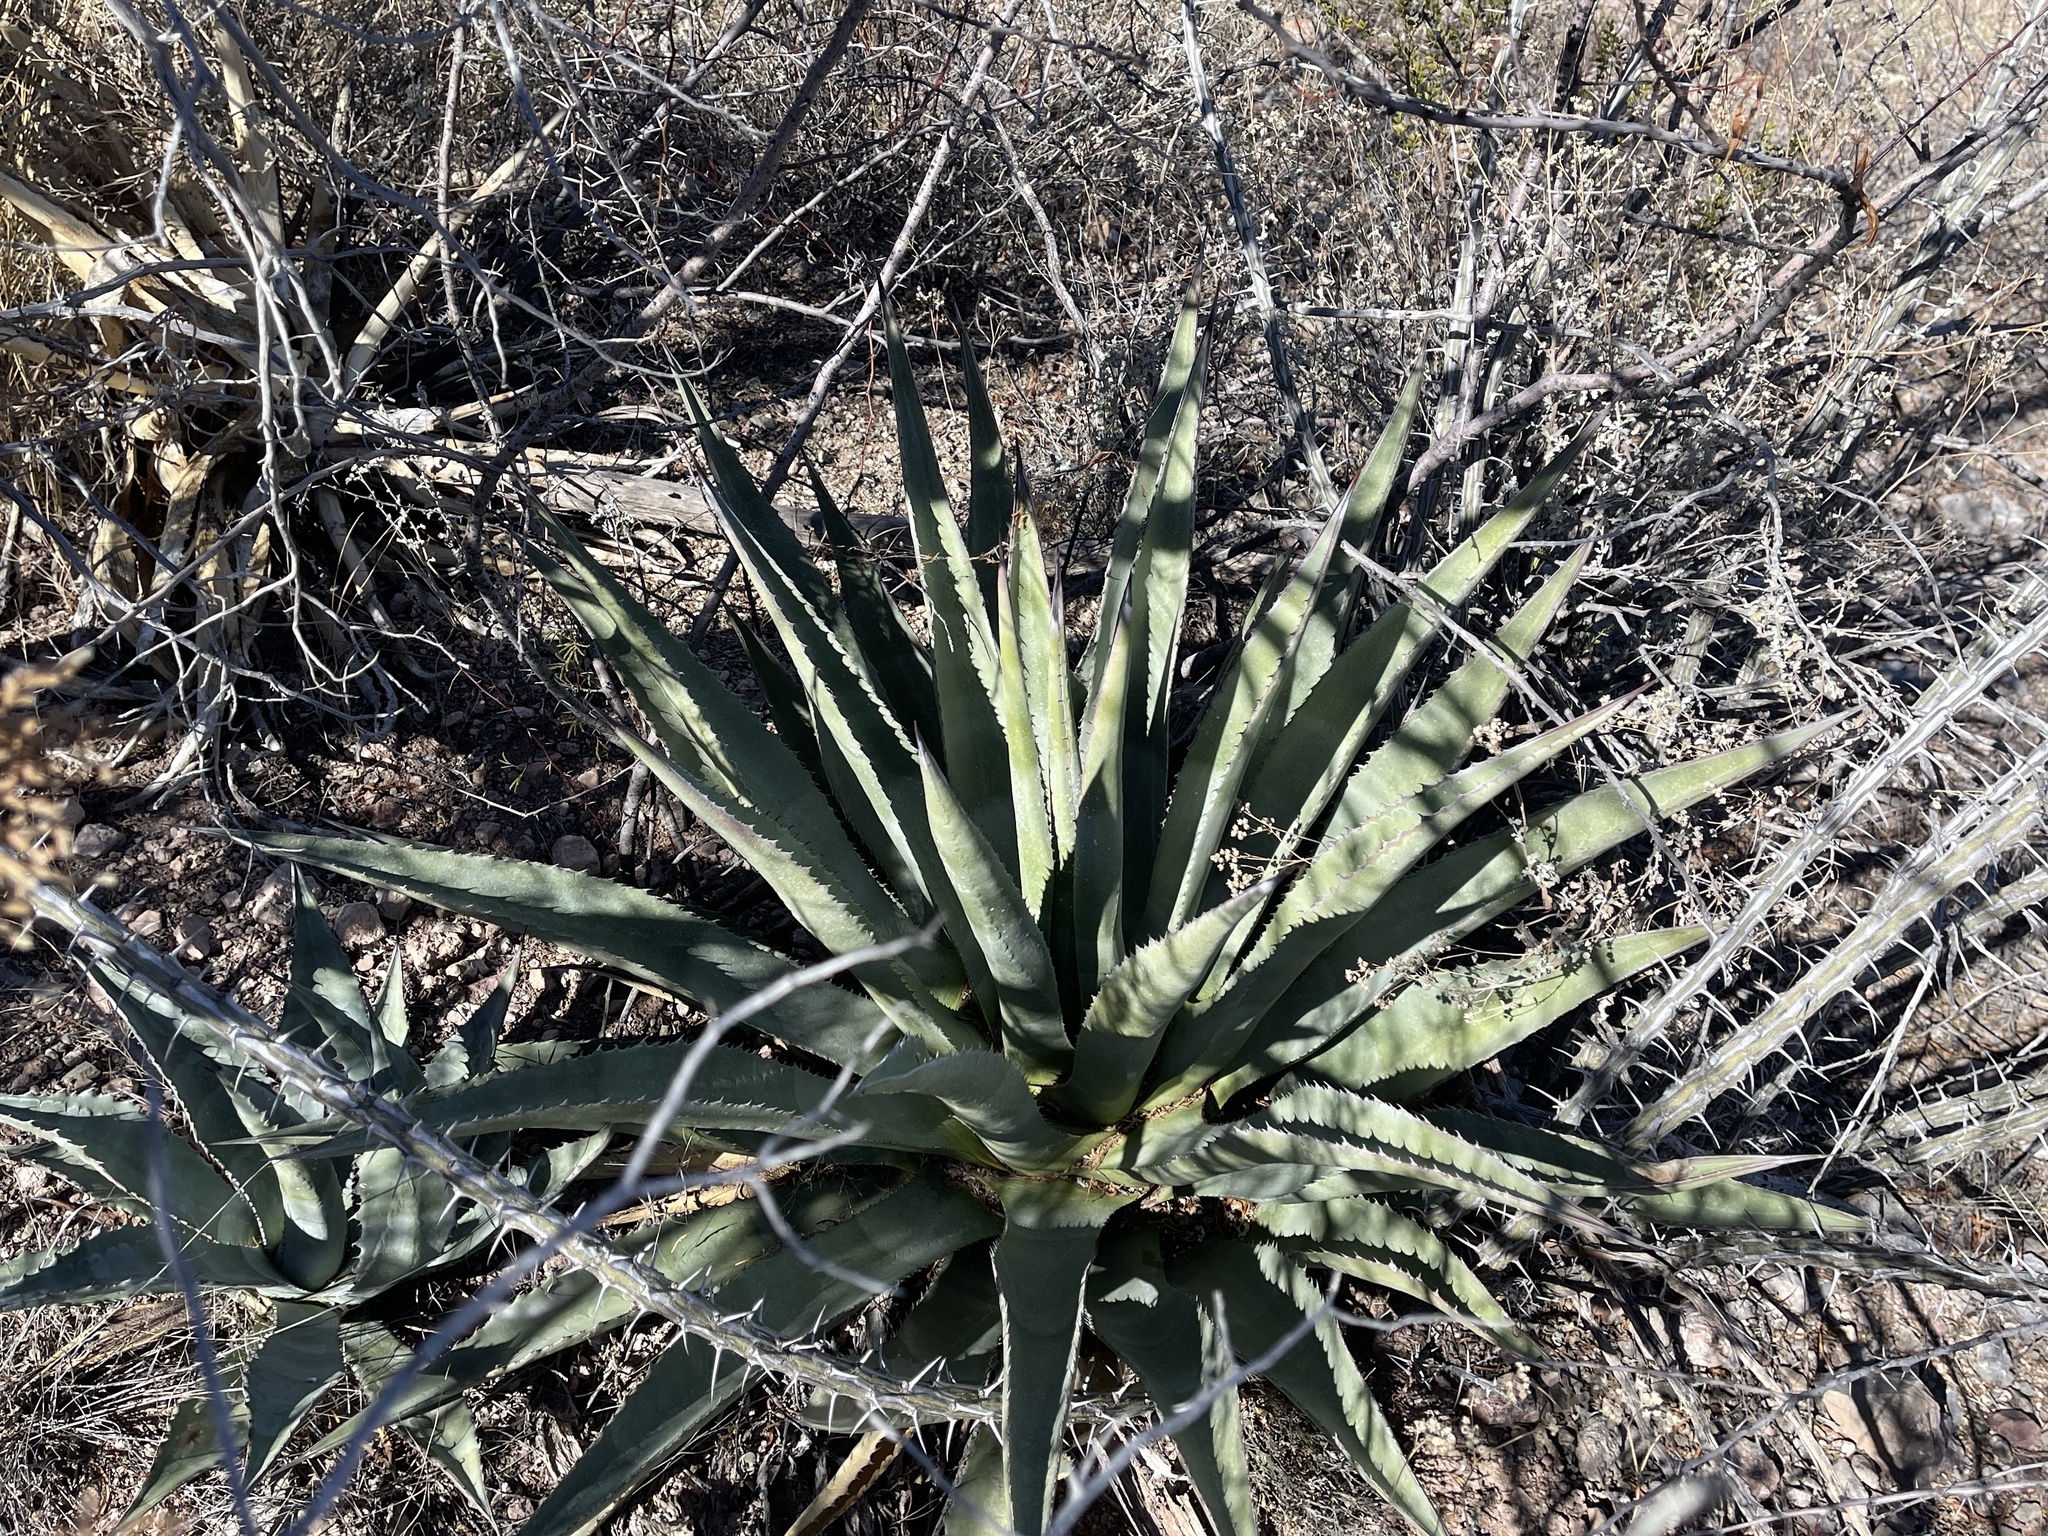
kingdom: Plantae
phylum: Tracheophyta
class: Liliopsida
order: Asparagales
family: Asparagaceae
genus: Agave
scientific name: Agave palmeri
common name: Palmer agave
